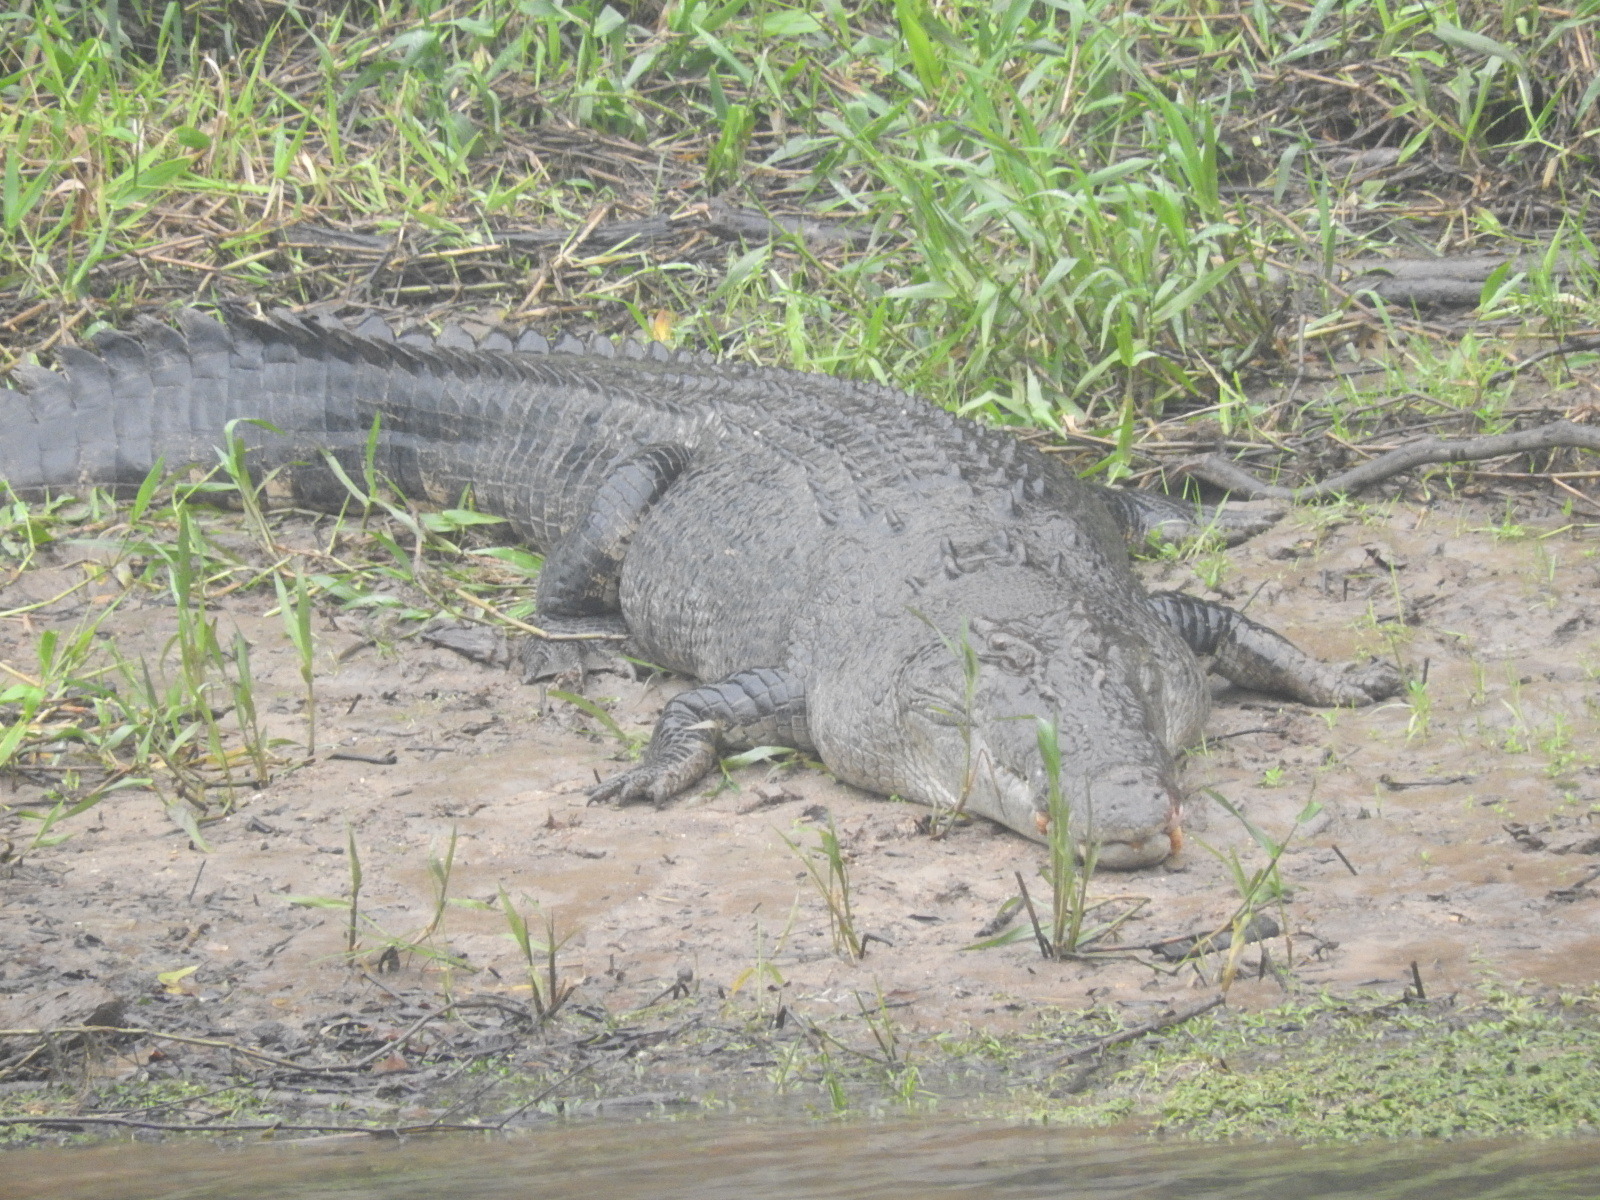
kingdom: Animalia
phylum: Chordata
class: Crocodylia
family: Crocodylidae
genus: Crocodylus
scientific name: Crocodylus porosus
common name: Saltwater crocodile
